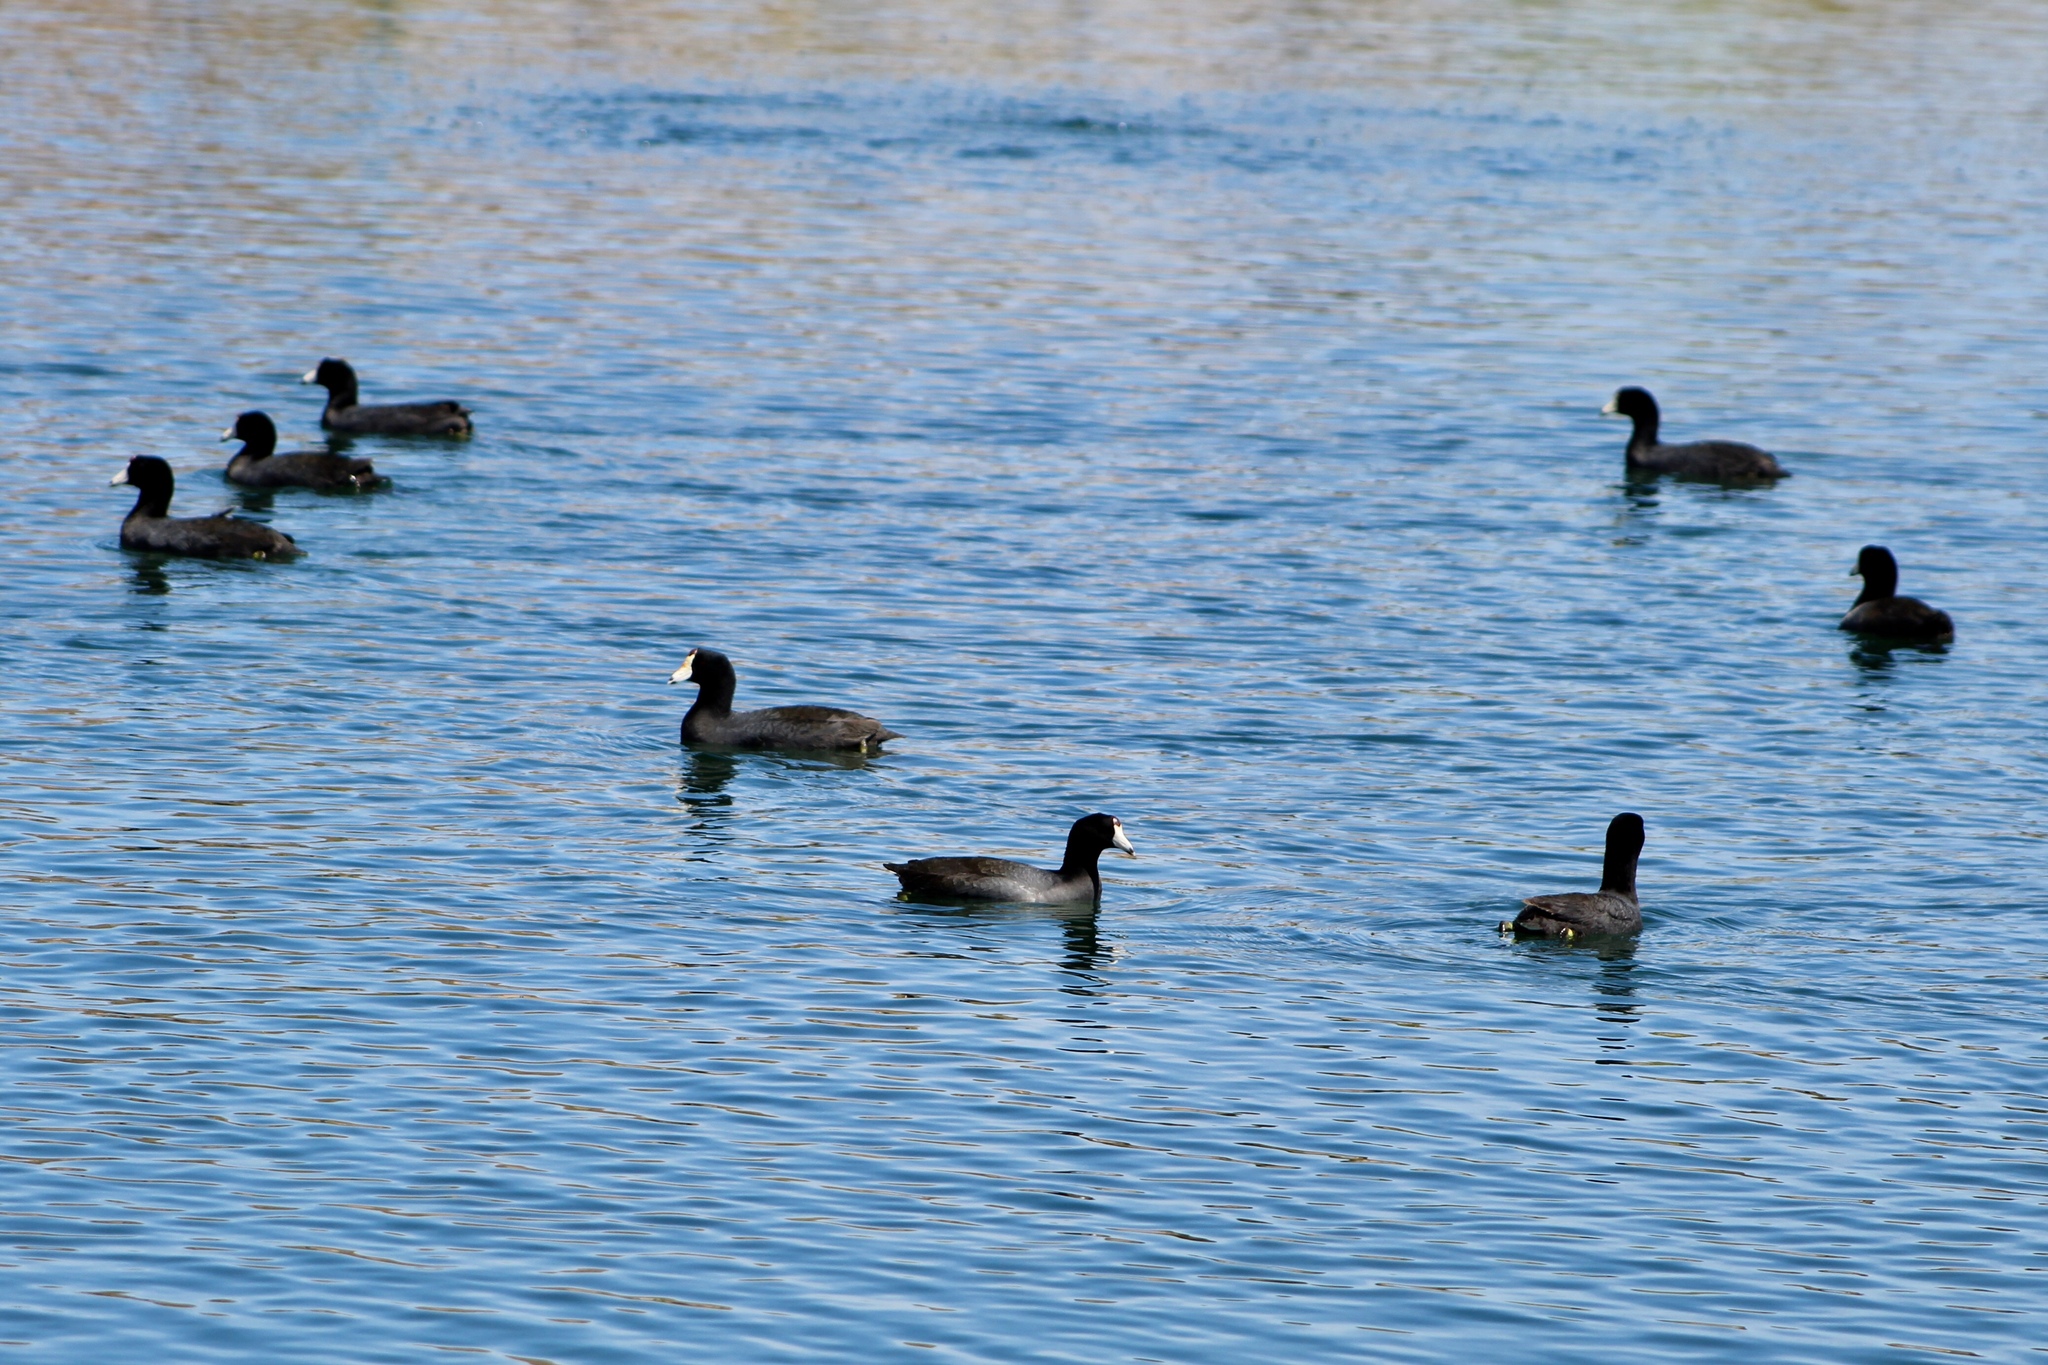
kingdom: Animalia
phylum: Chordata
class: Aves
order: Gruiformes
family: Rallidae
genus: Fulica
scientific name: Fulica americana
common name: American coot
